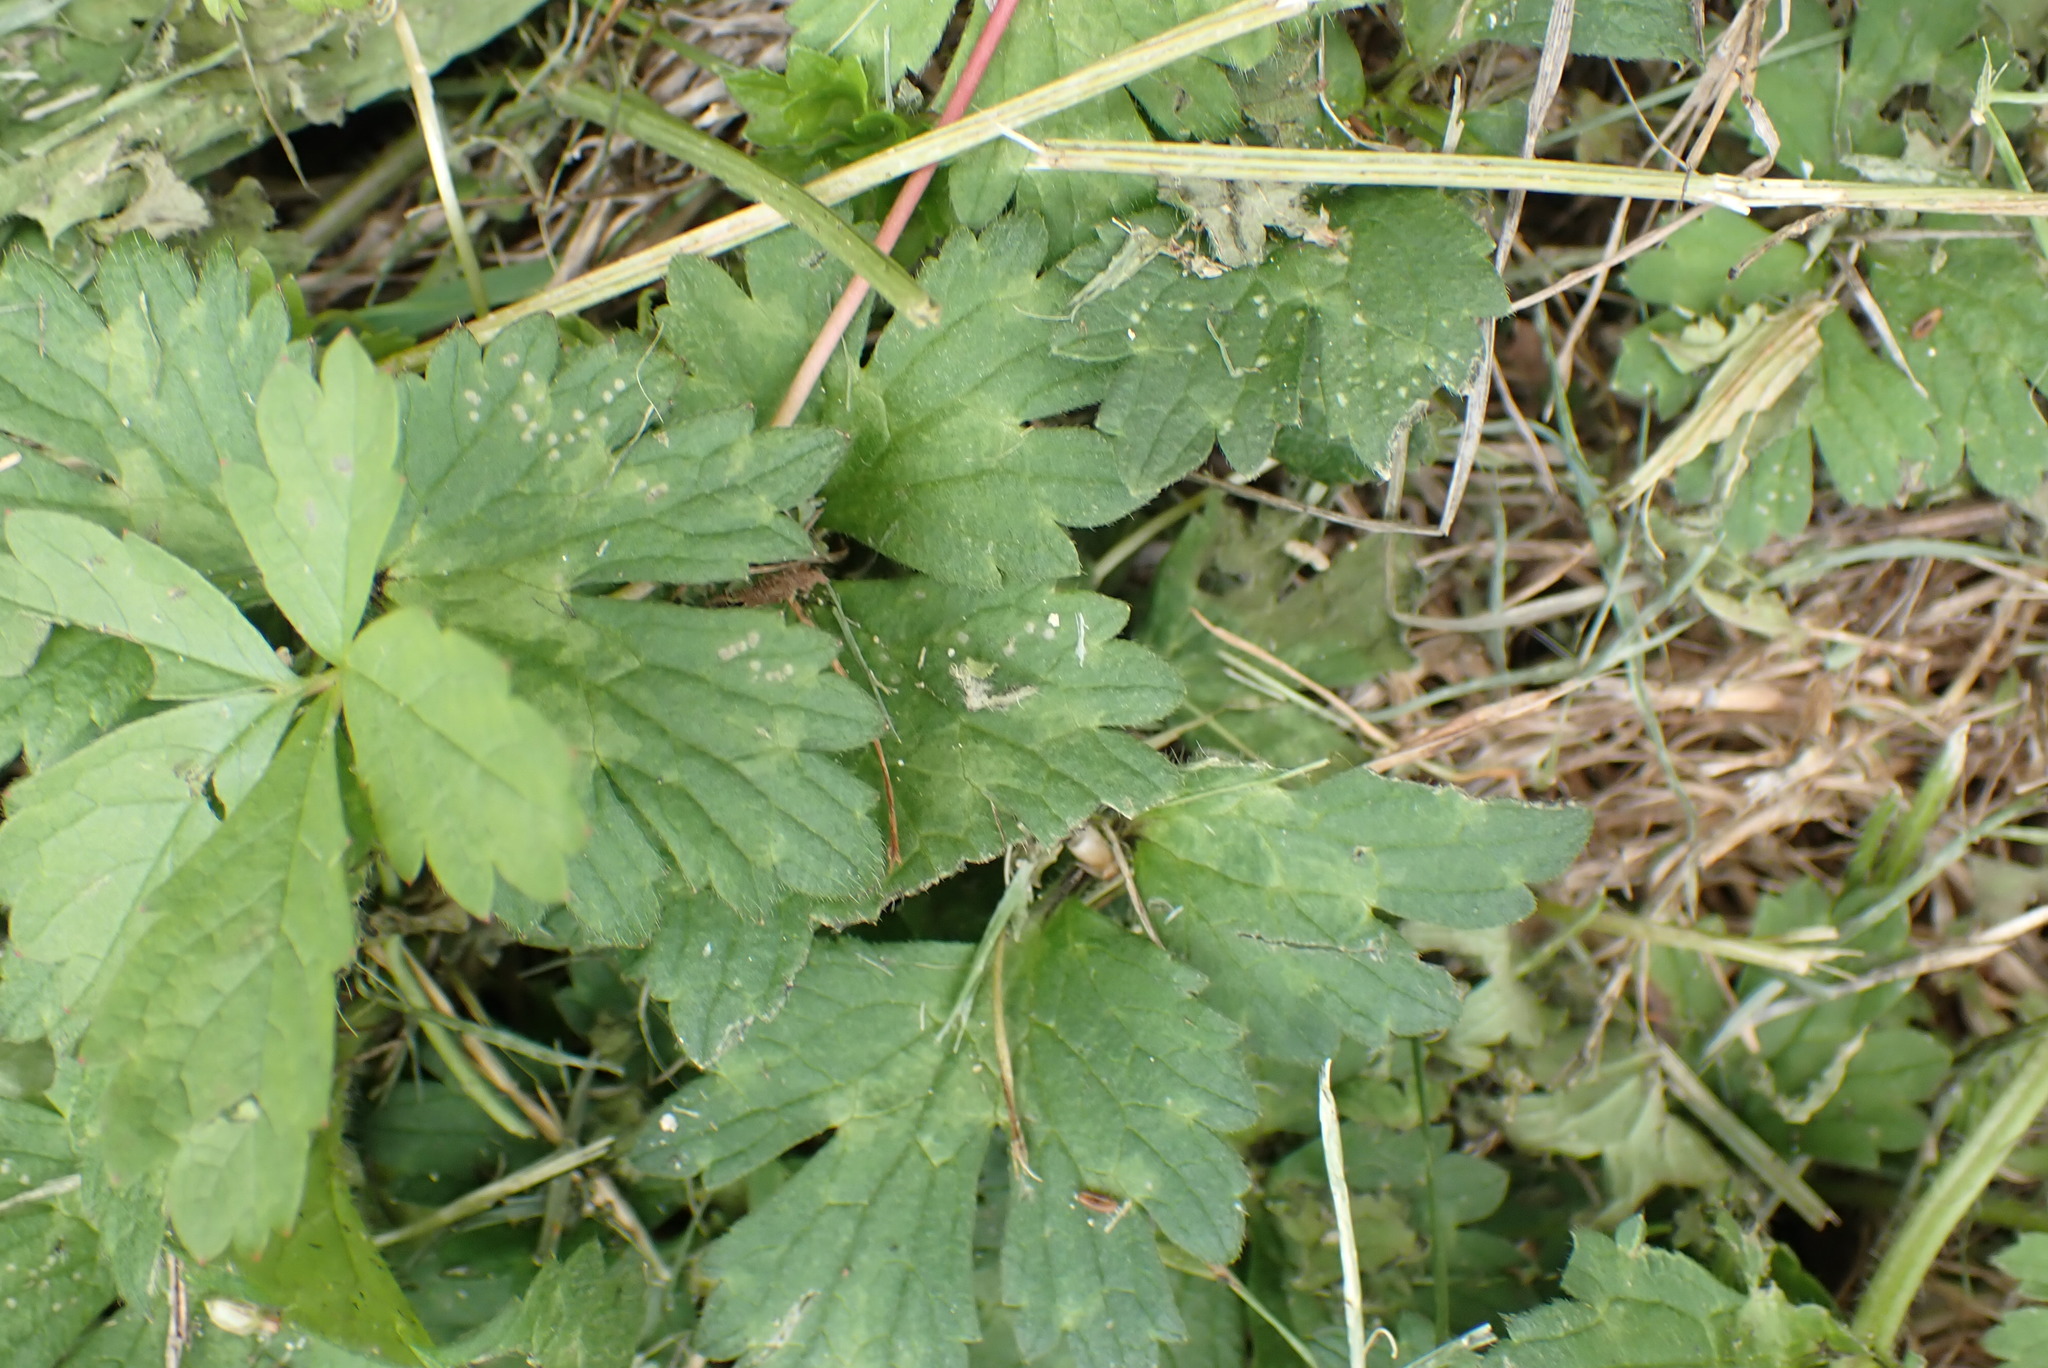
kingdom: Plantae
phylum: Tracheophyta
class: Magnoliopsida
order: Ranunculales
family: Ranunculaceae
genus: Ranunculus
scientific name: Ranunculus repens
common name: Creeping buttercup
